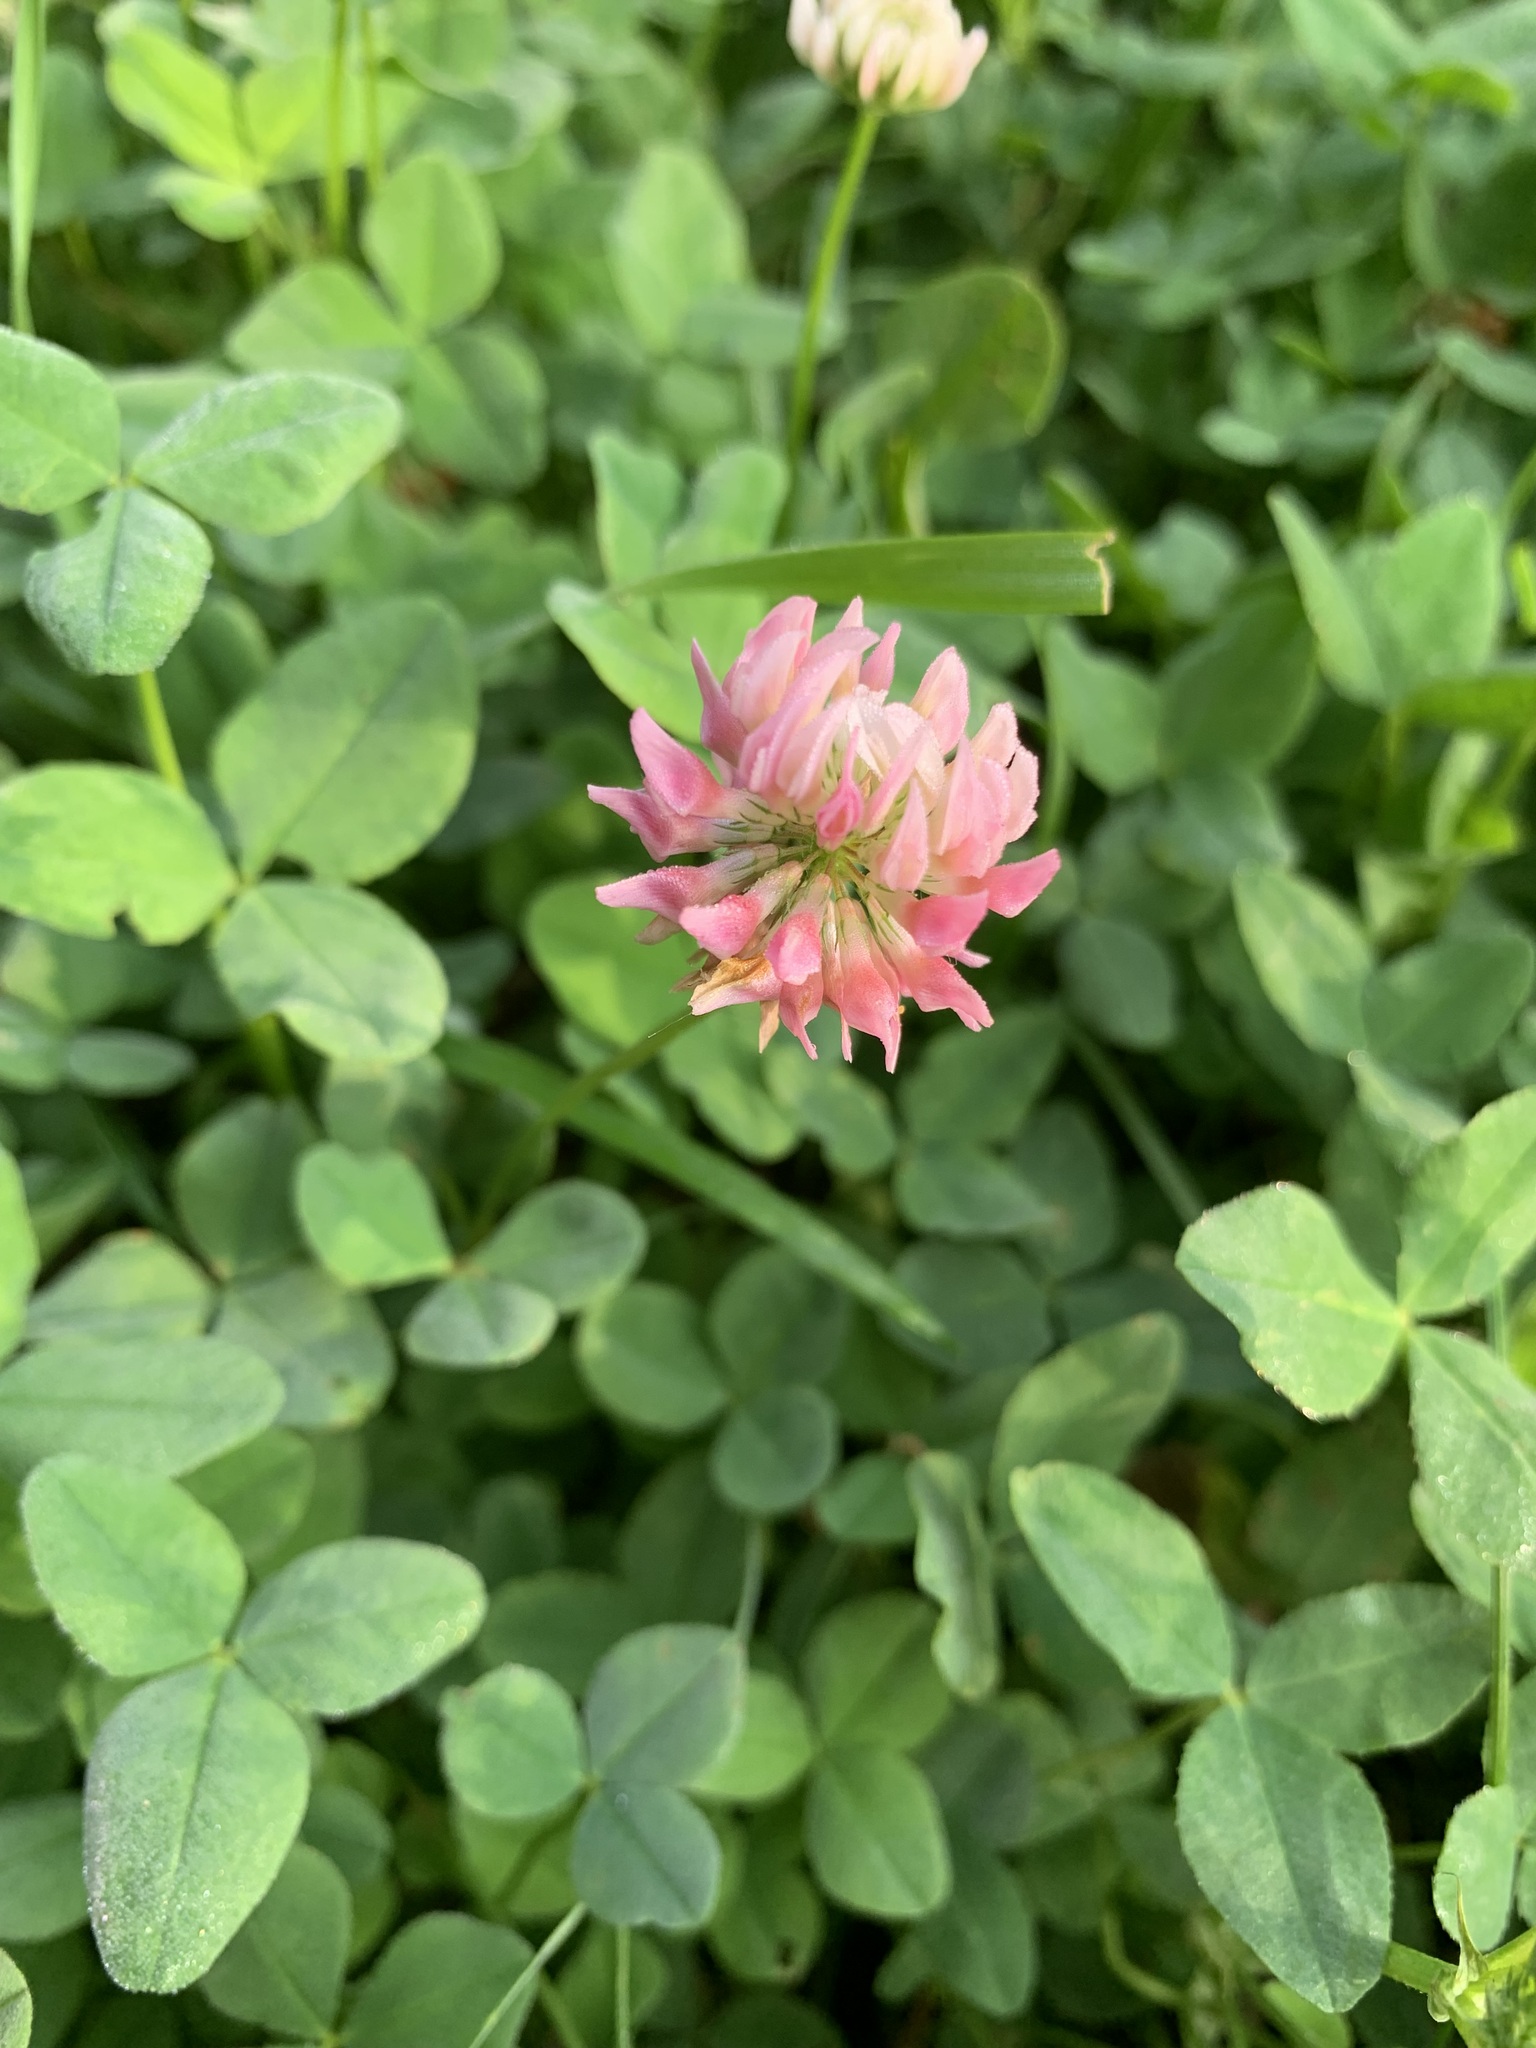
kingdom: Plantae
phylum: Tracheophyta
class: Magnoliopsida
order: Fabales
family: Fabaceae
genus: Trifolium
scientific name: Trifolium hybridum
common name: Alsike clover
